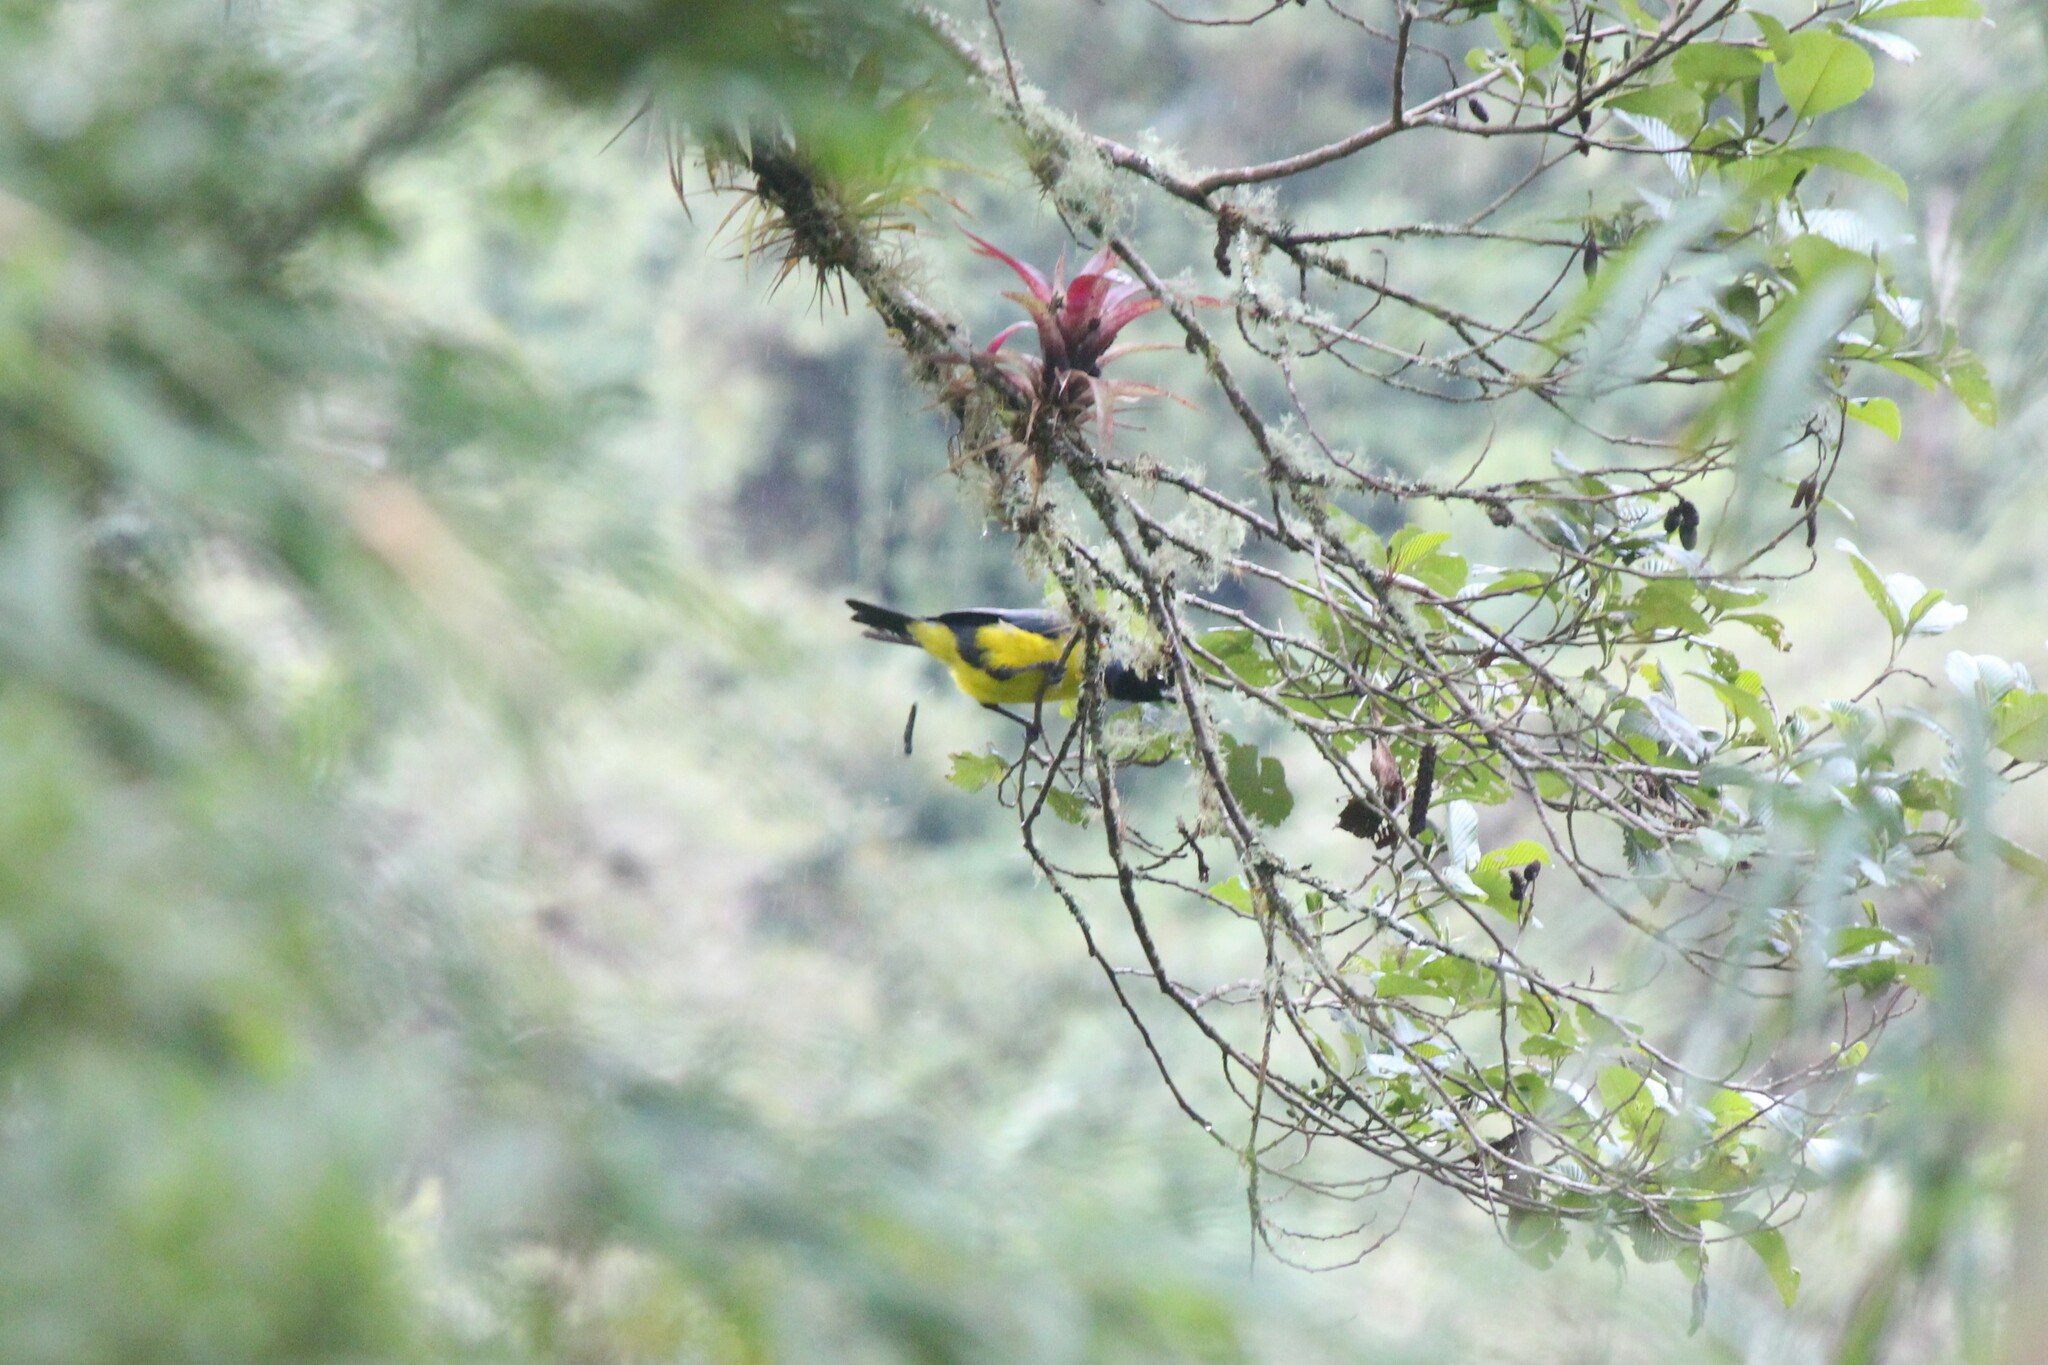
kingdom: Animalia
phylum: Chordata
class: Aves
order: Passeriformes
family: Thraupidae
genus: Buthraupis
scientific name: Buthraupis montana
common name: Hooded mountain tanager
